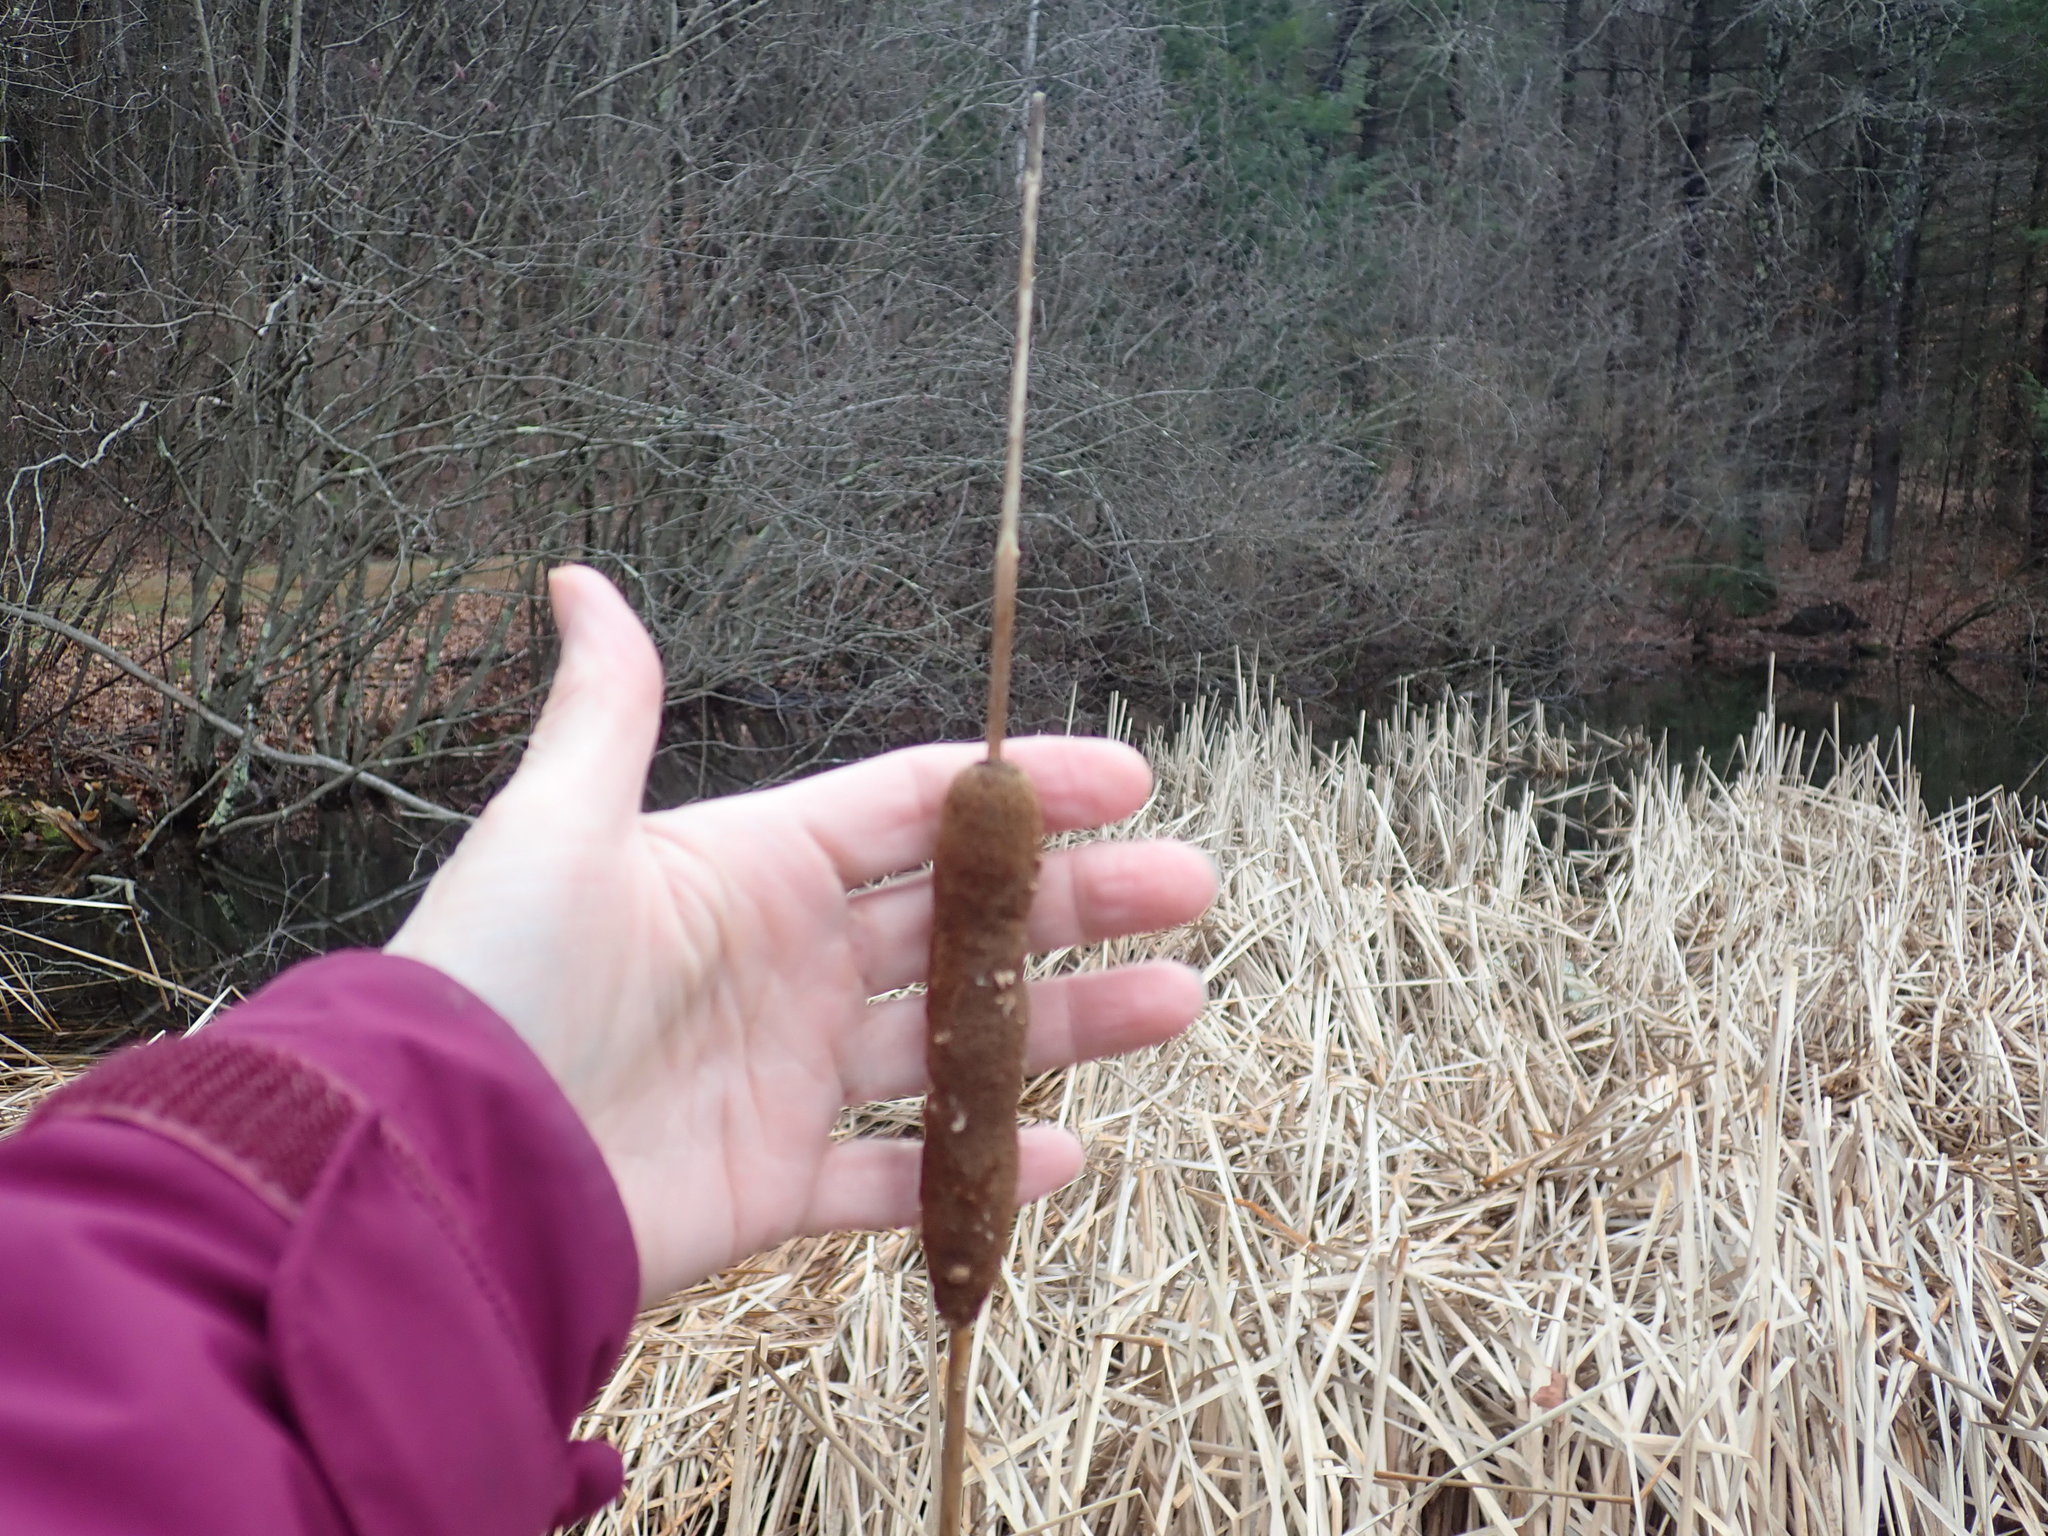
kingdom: Plantae
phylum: Tracheophyta
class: Liliopsida
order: Poales
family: Typhaceae
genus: Typha
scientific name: Typha angustifolia
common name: Lesser bulrush
